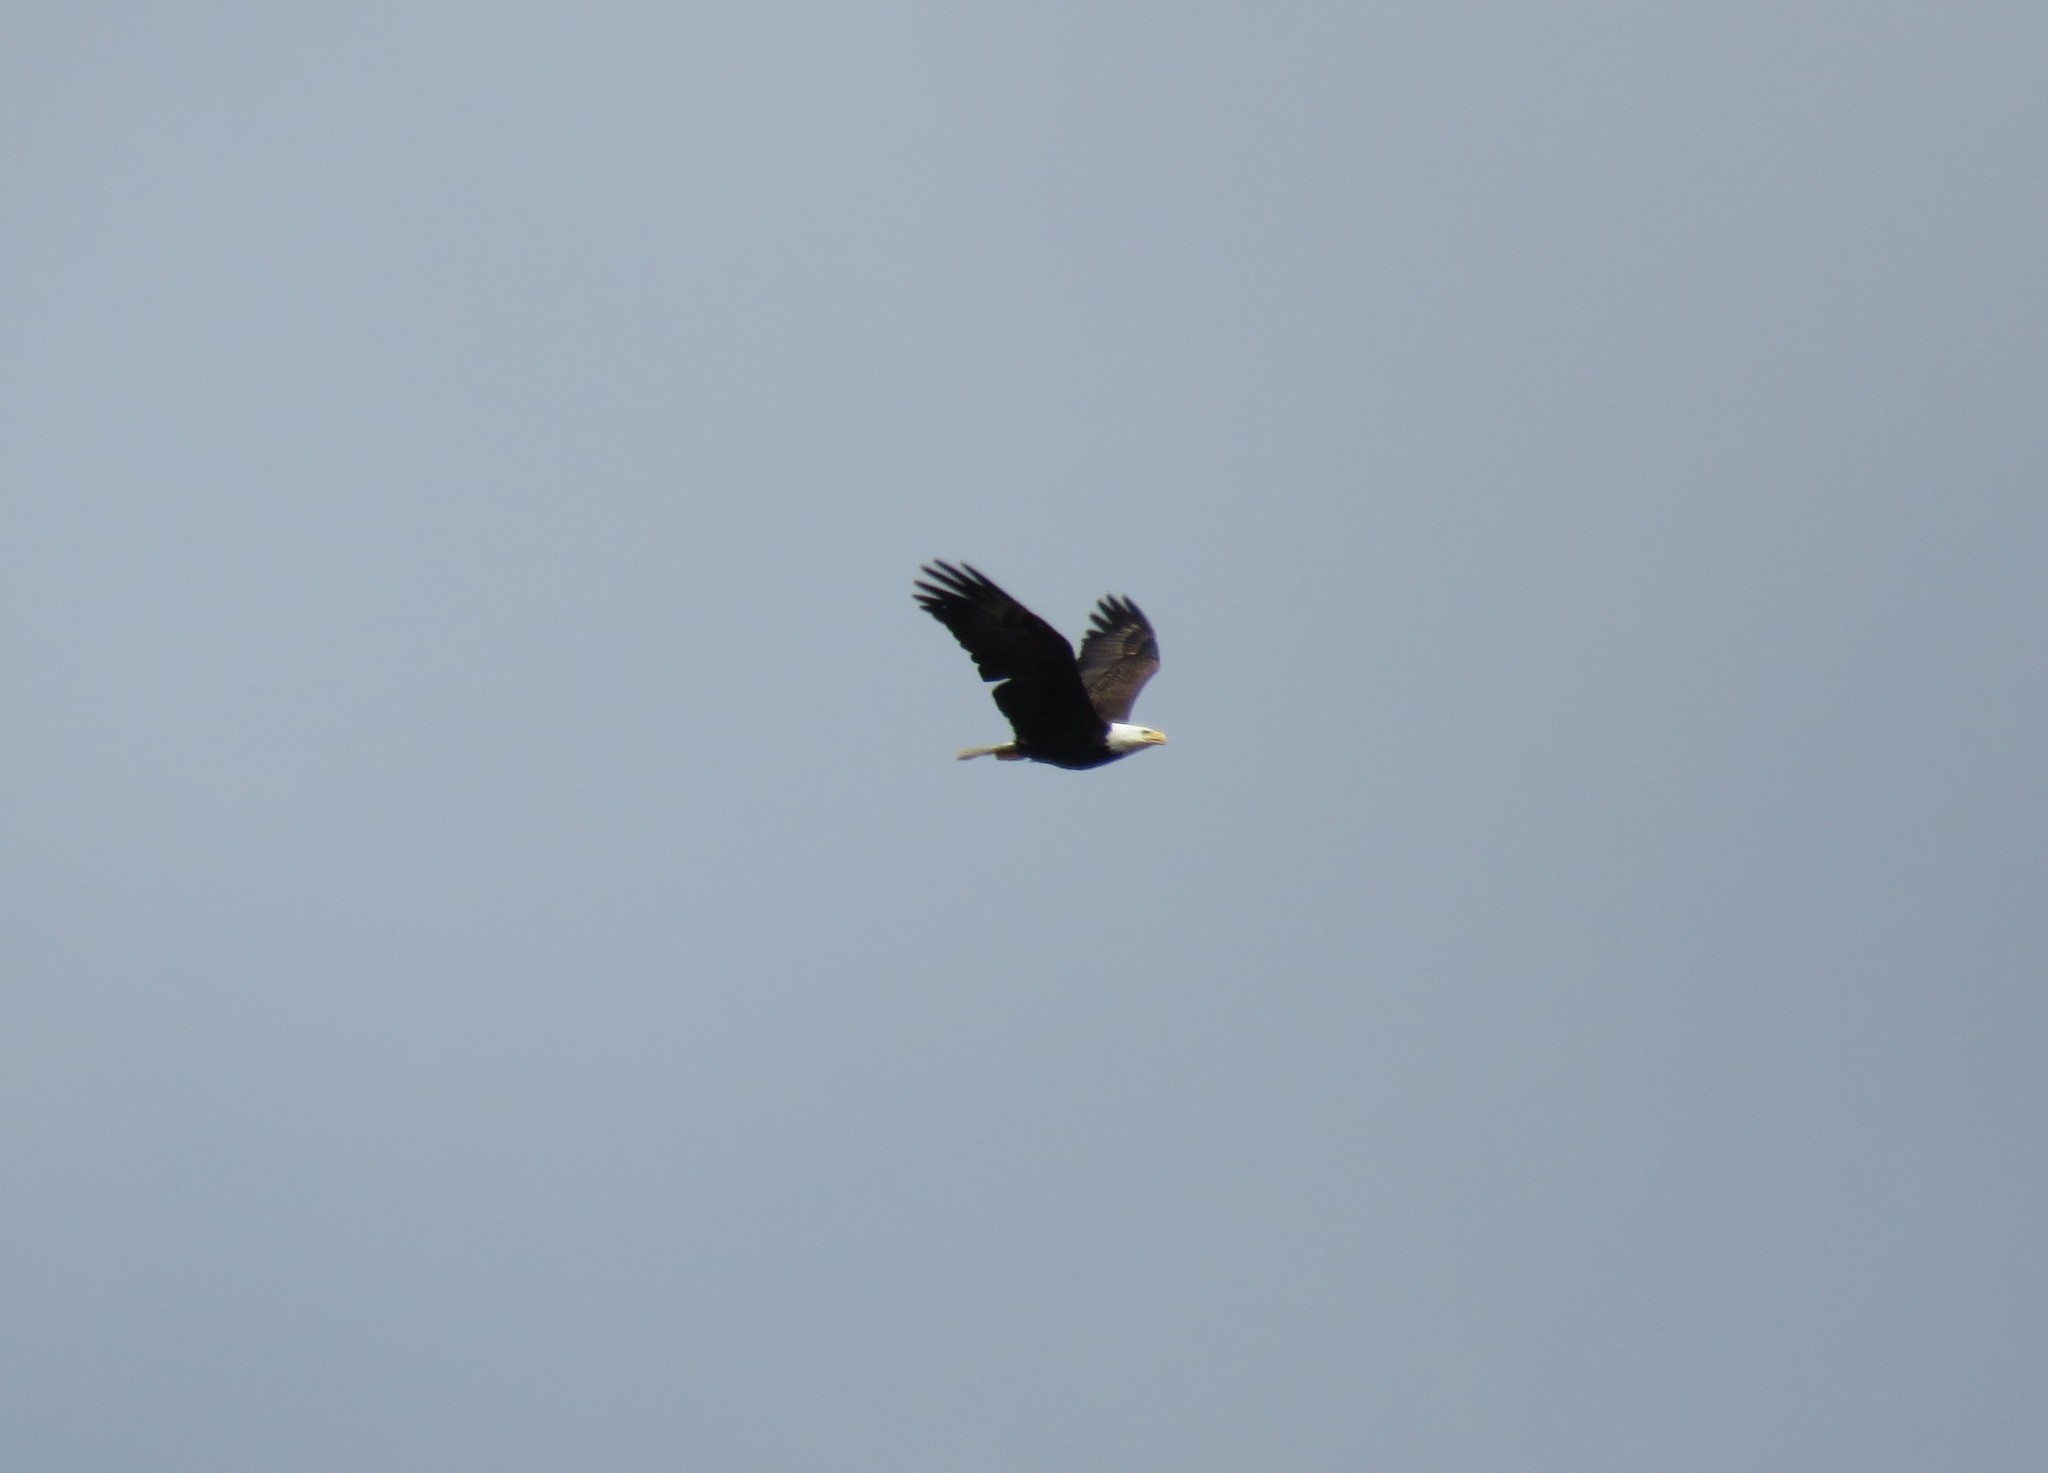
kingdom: Animalia
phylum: Chordata
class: Aves
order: Accipitriformes
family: Accipitridae
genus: Haliaeetus
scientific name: Haliaeetus leucocephalus
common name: Bald eagle
